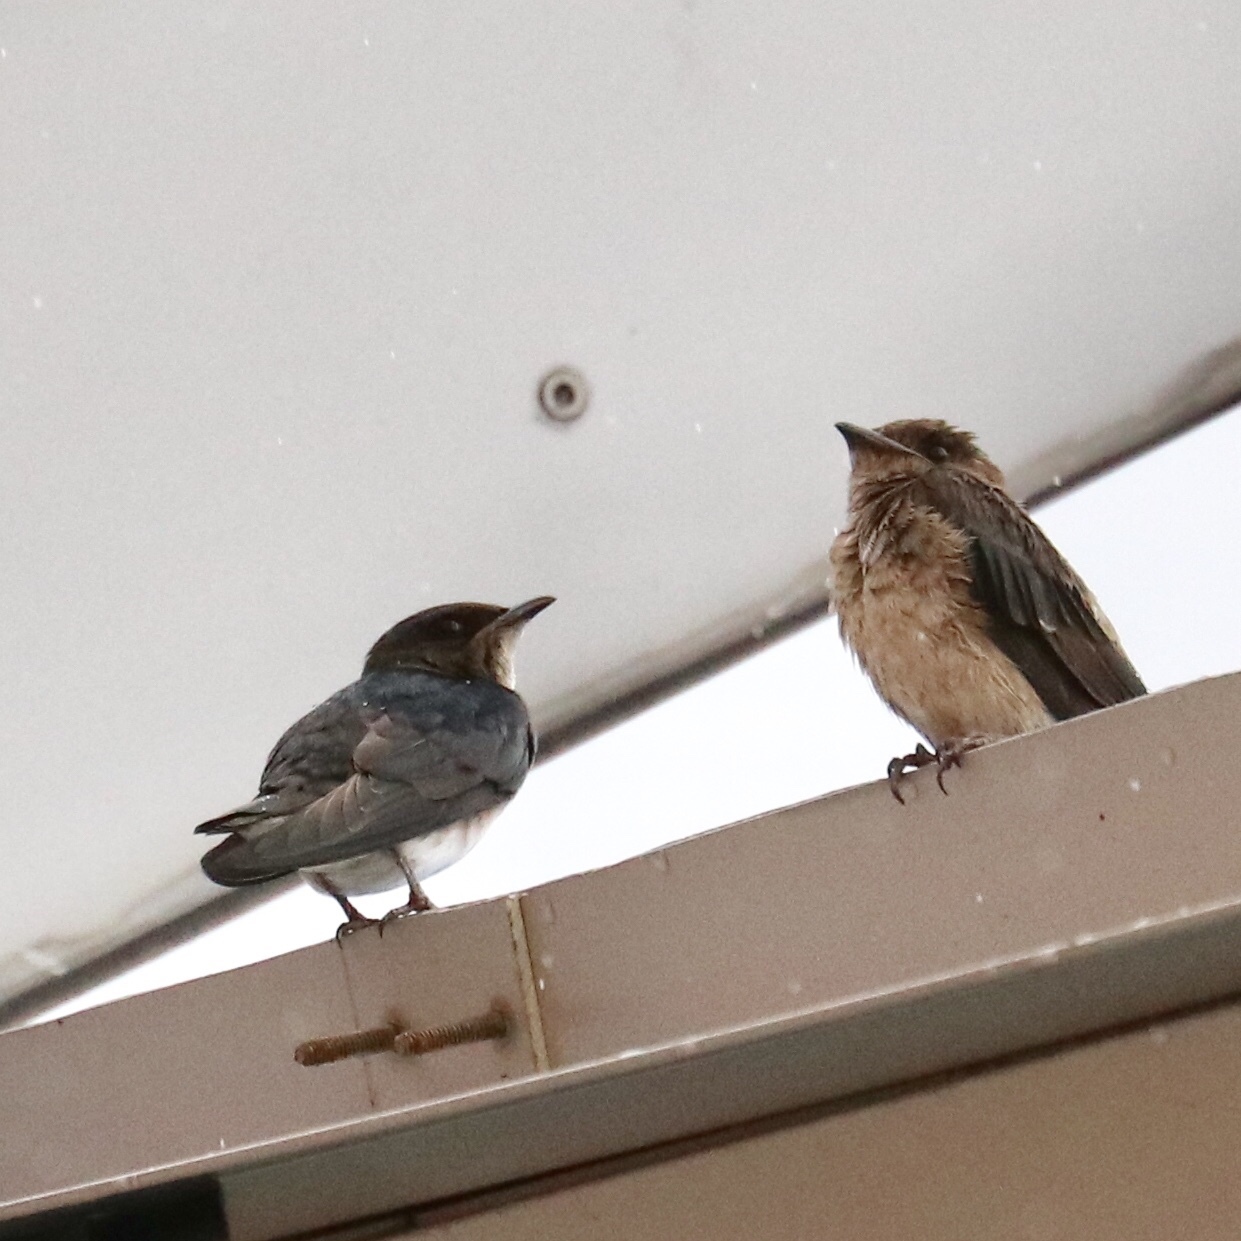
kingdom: Animalia
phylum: Chordata
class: Aves
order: Passeriformes
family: Hirundinidae
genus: Progne
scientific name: Progne chalybea
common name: Grey-breasted martin
